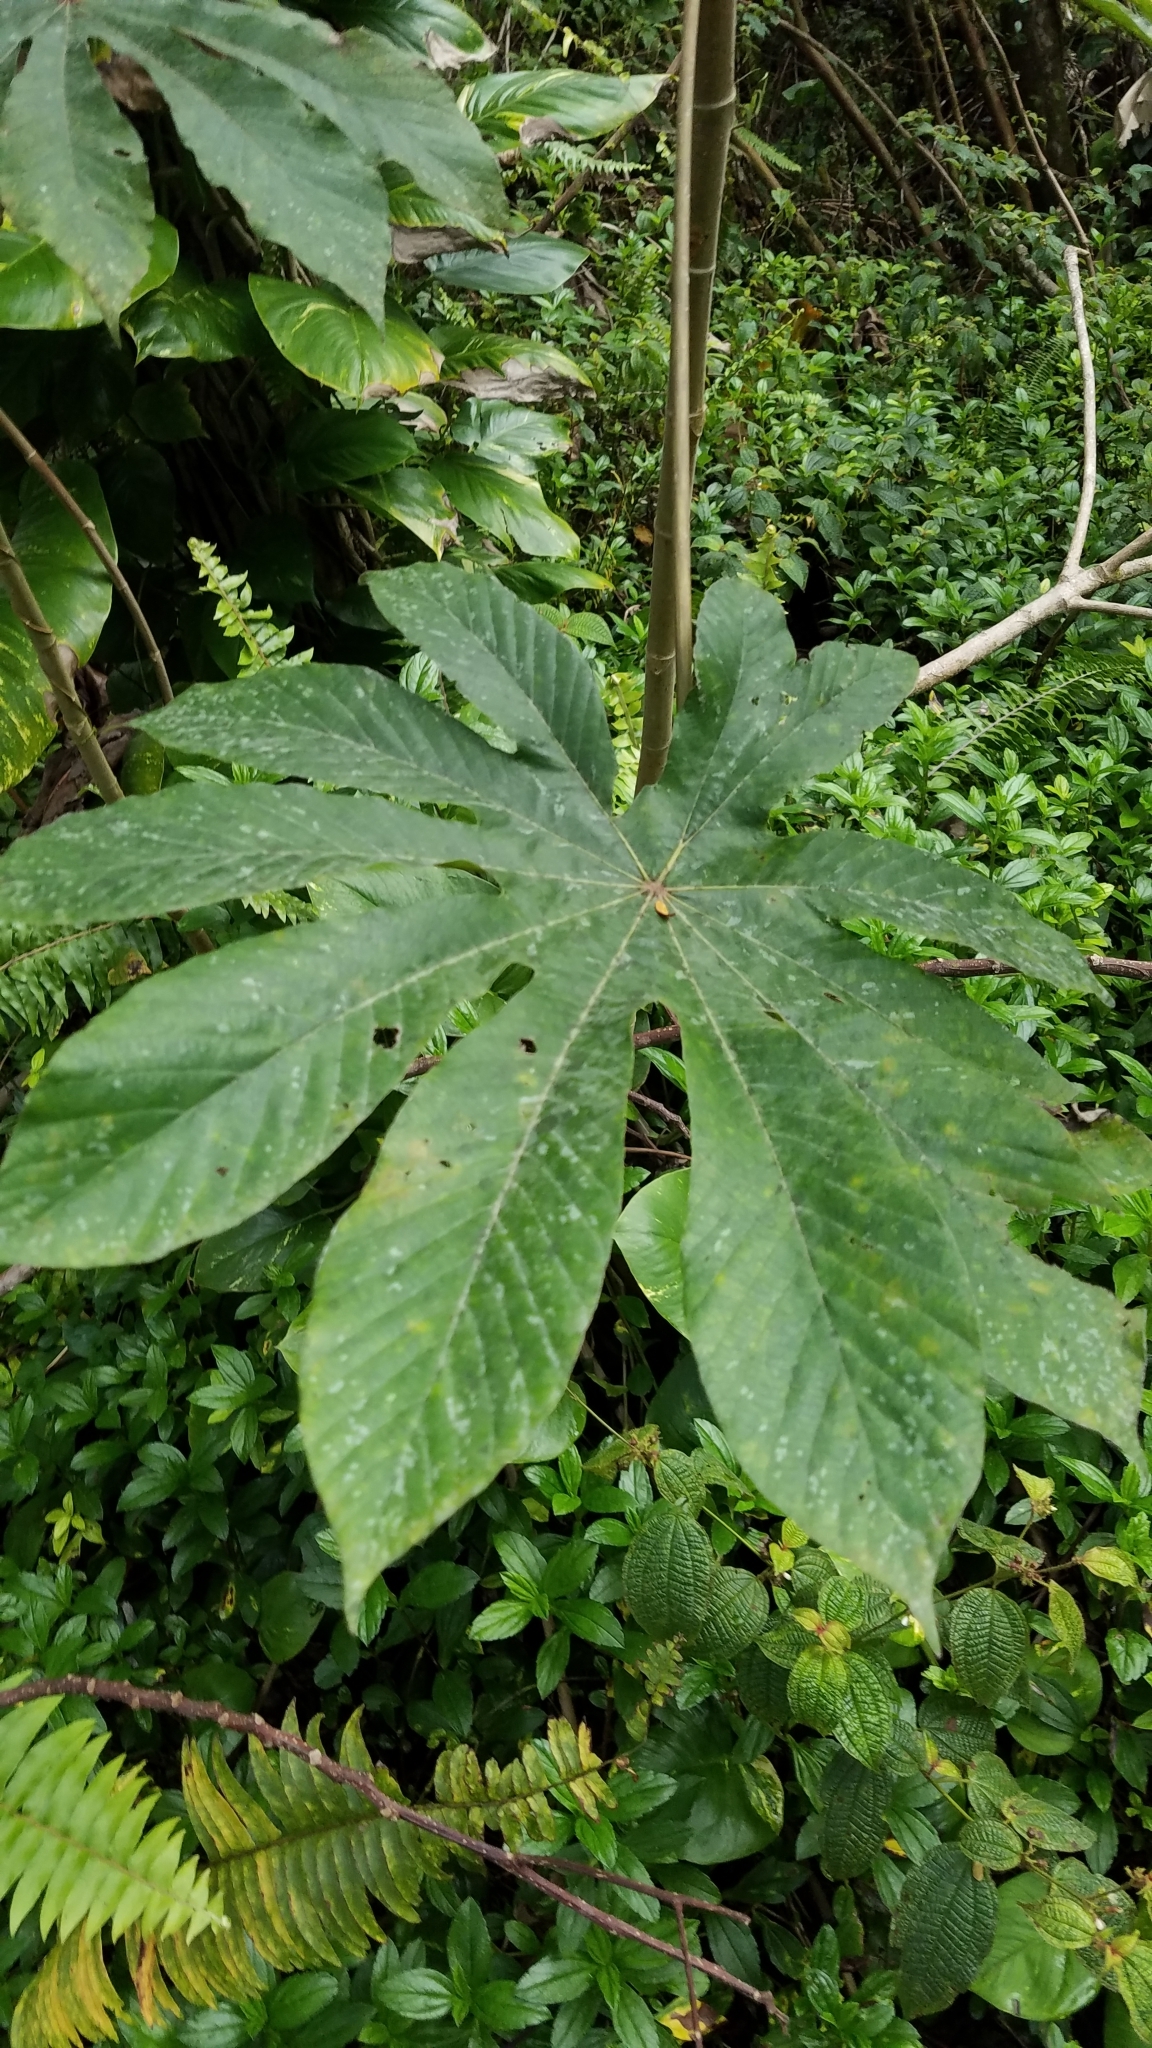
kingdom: Plantae
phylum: Tracheophyta
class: Magnoliopsida
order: Rosales
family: Urticaceae
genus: Cecropia
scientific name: Cecropia obtusifolia
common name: Trumpet tree
